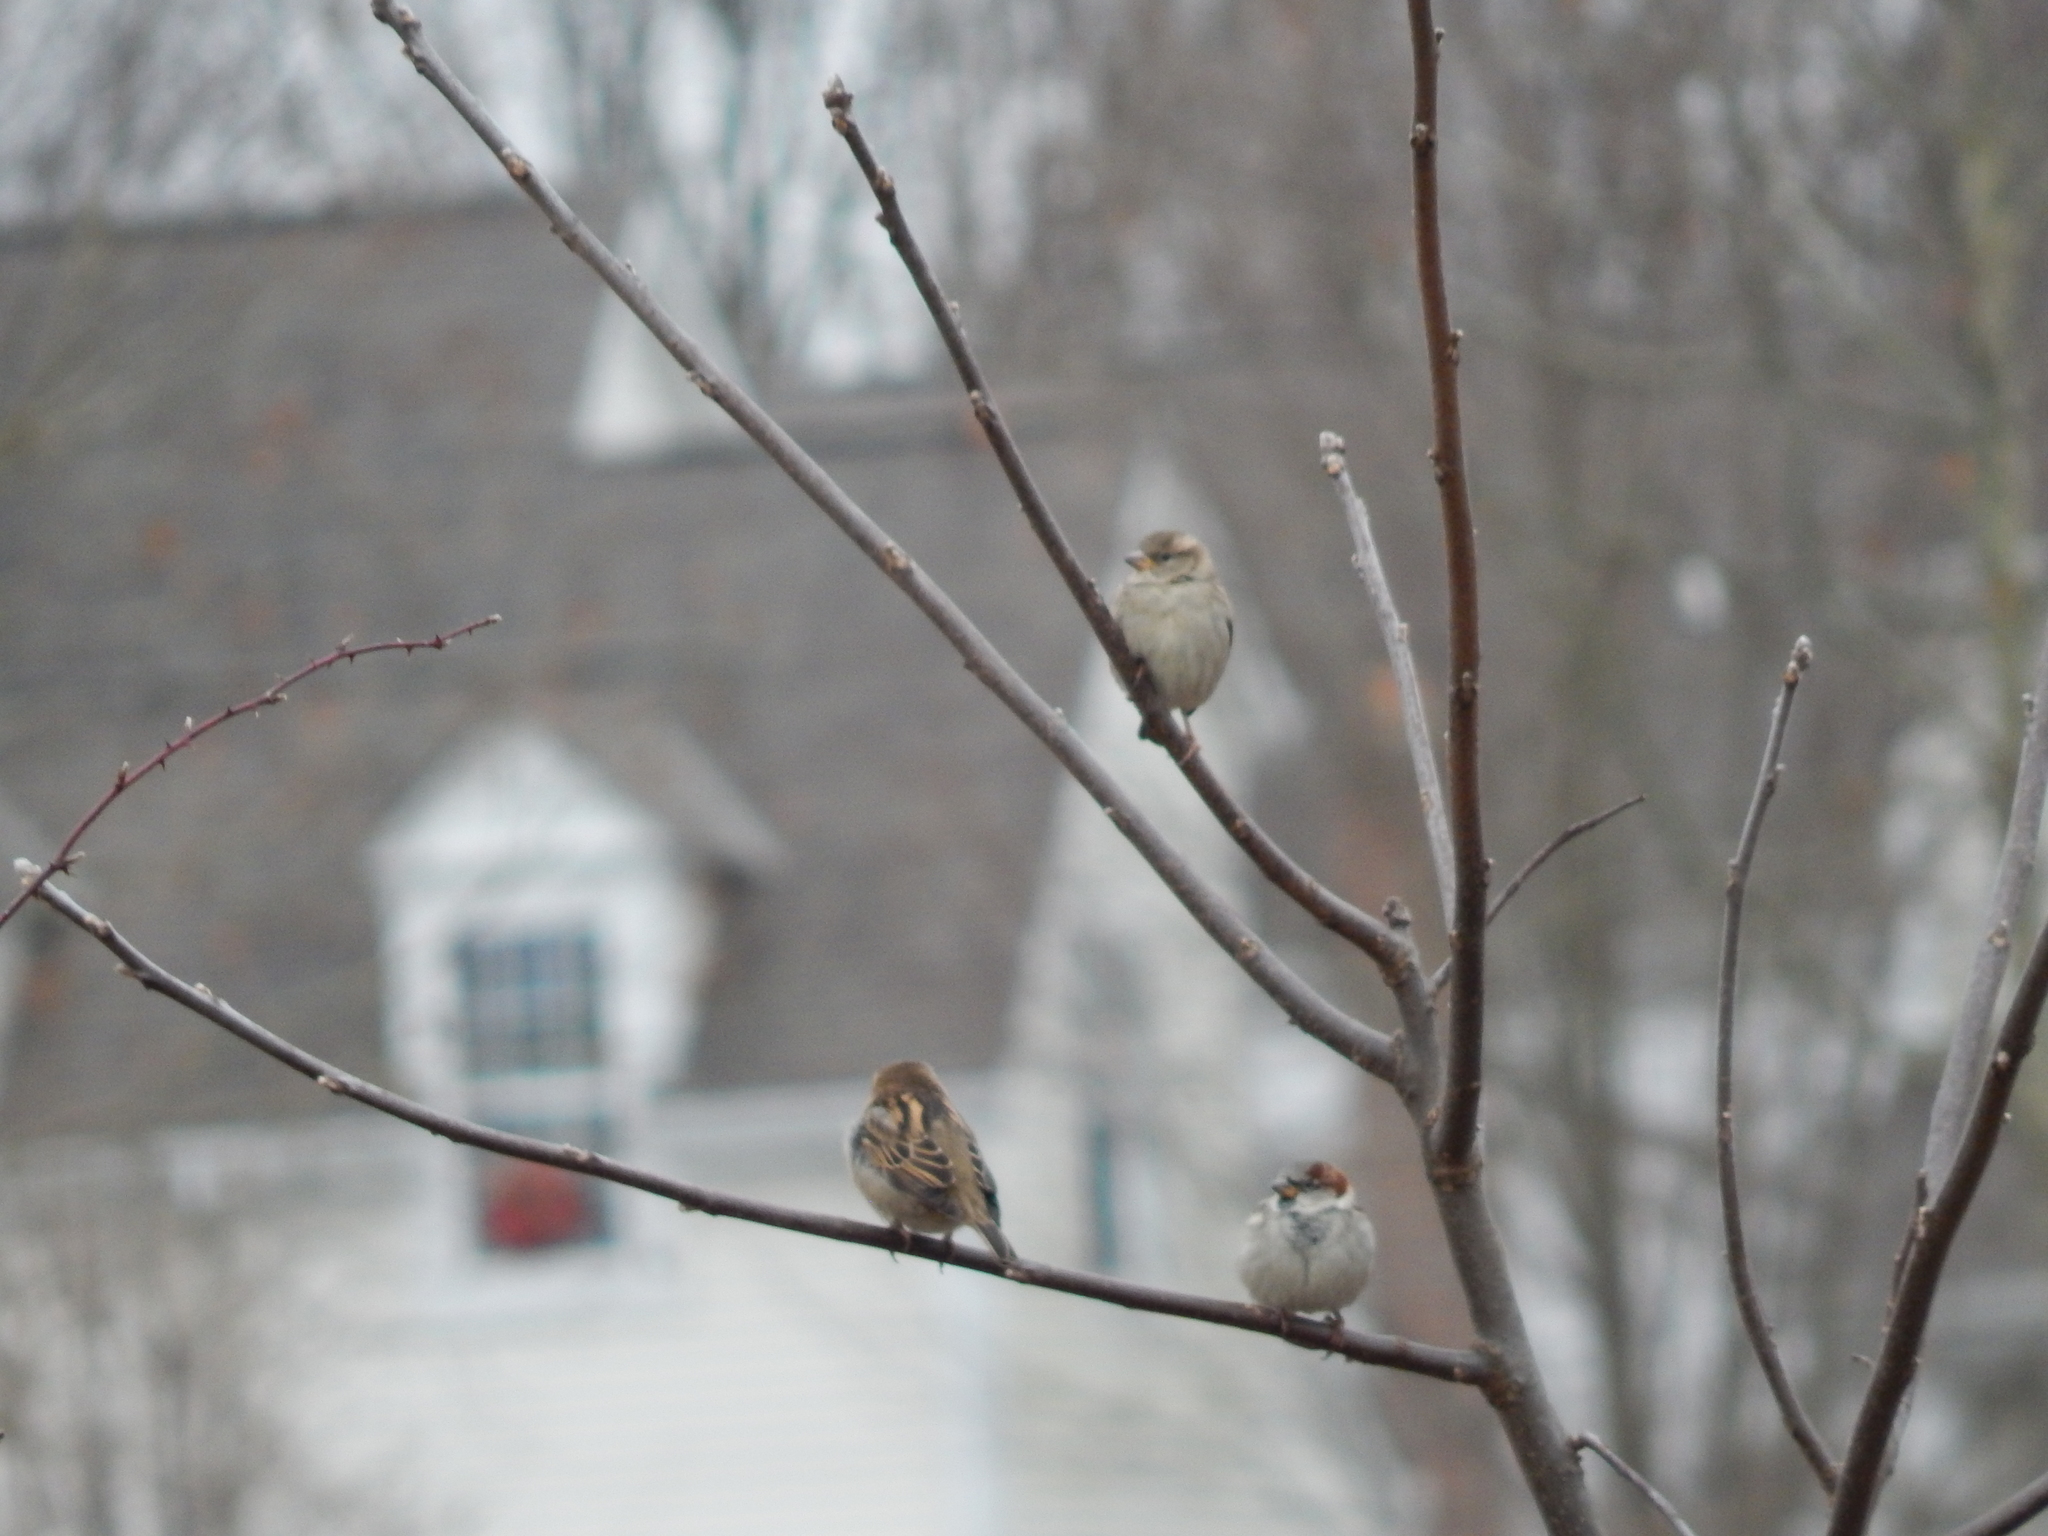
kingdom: Animalia
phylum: Chordata
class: Aves
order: Passeriformes
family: Passeridae
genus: Passer
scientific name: Passer domesticus
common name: House sparrow
